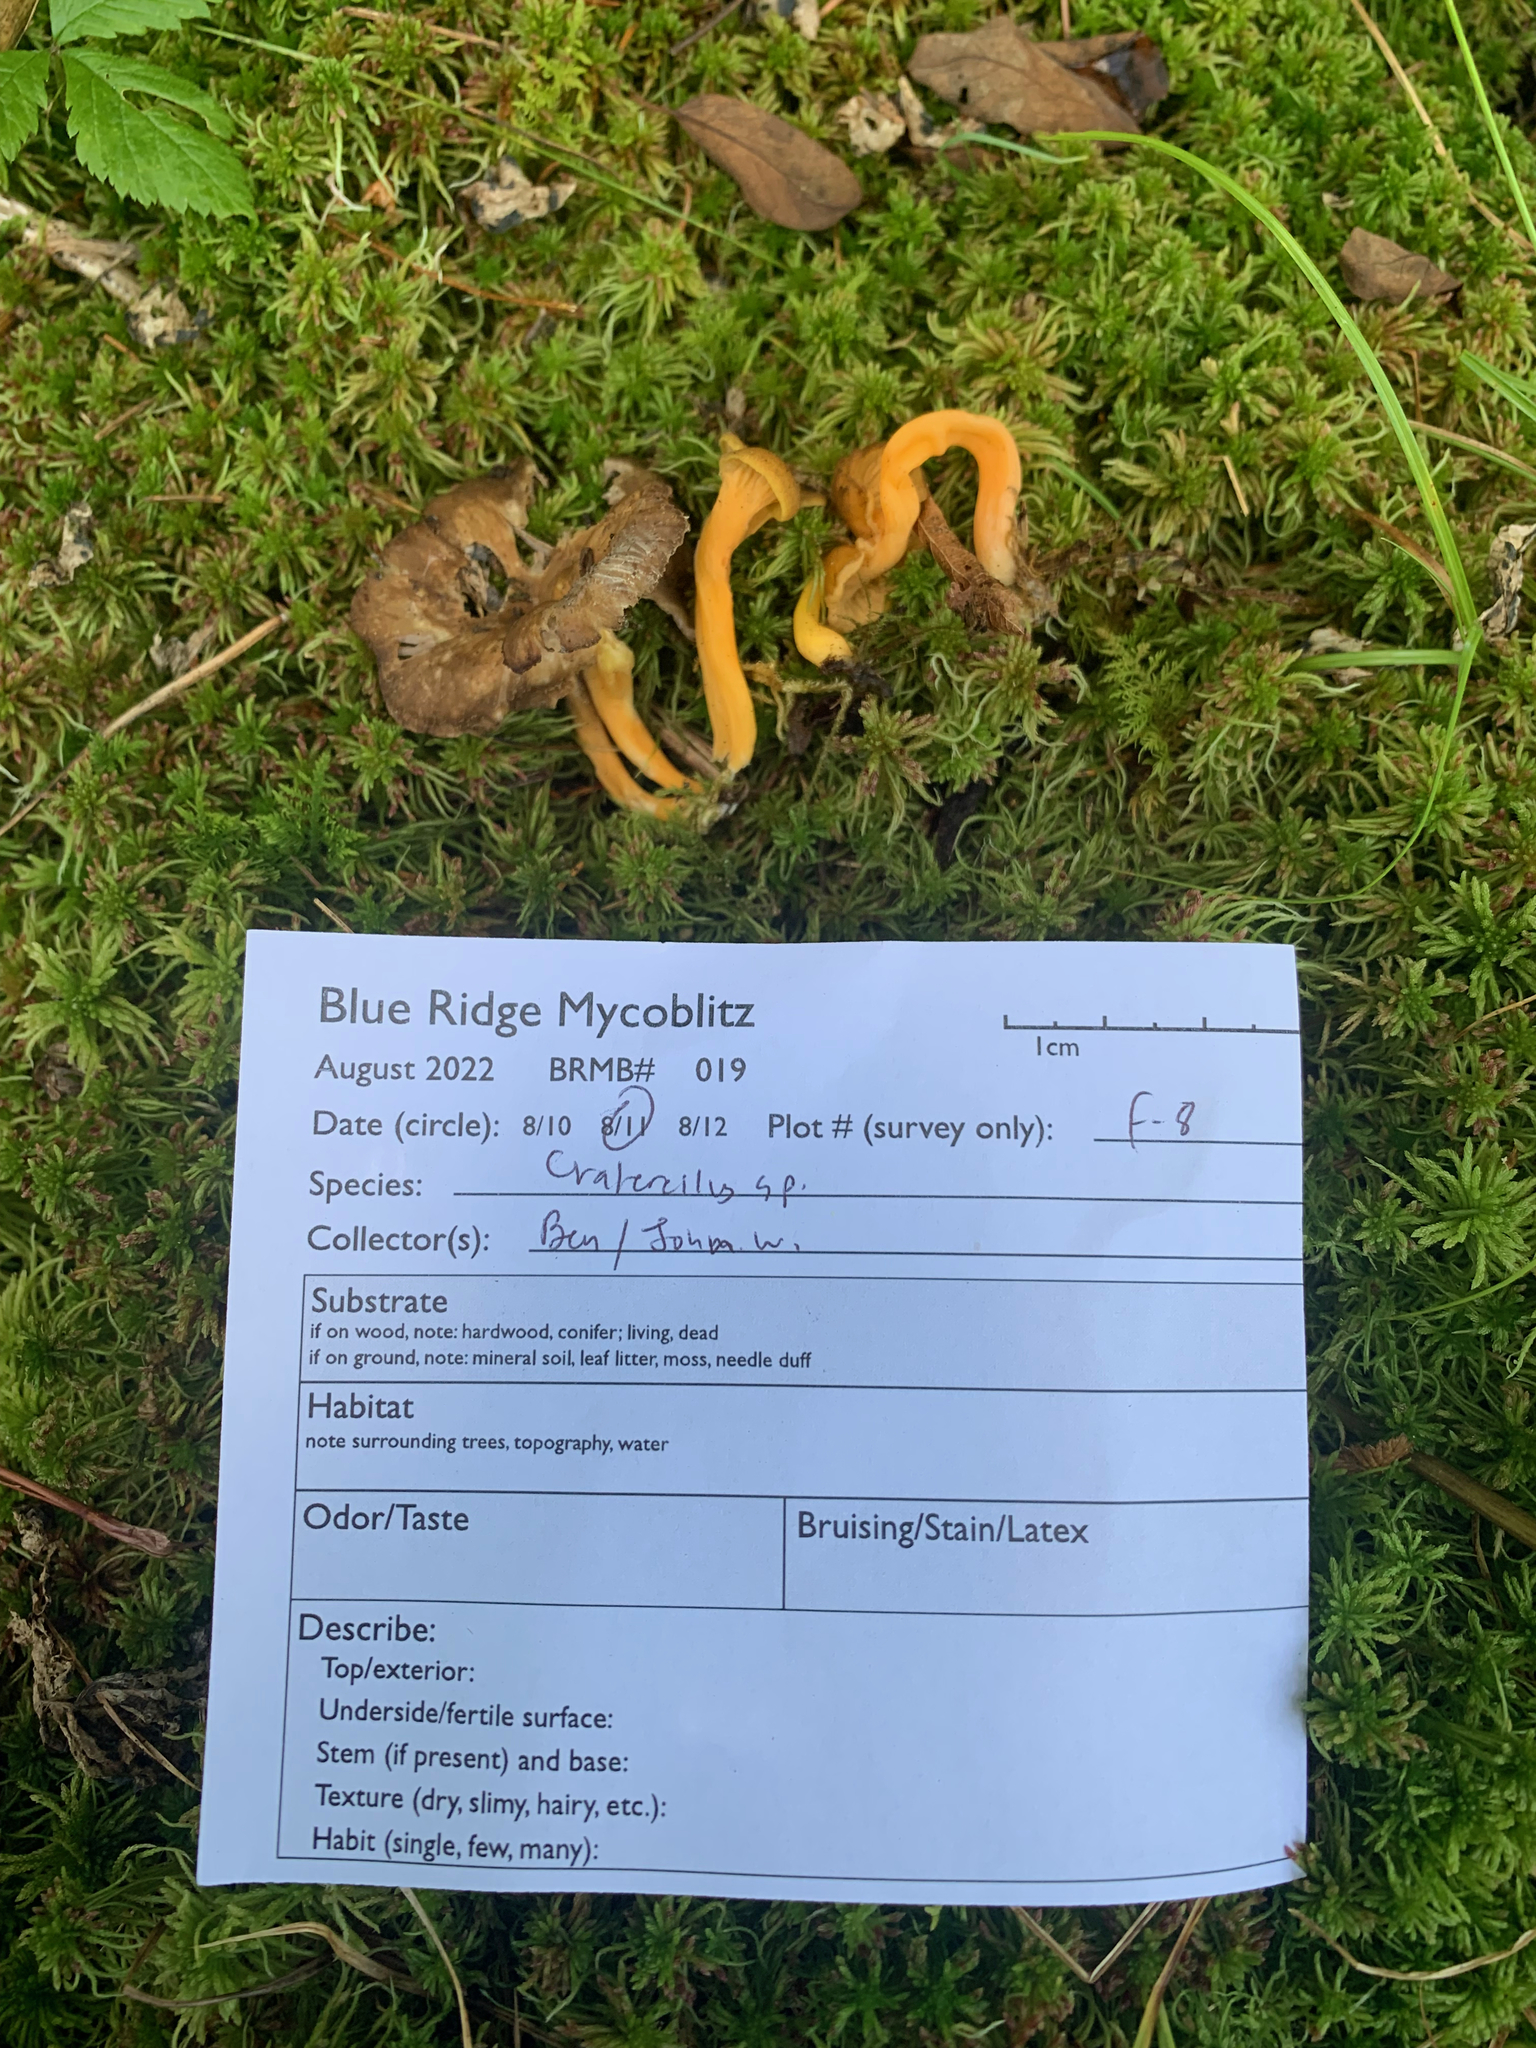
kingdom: Fungi
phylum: Basidiomycota
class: Agaricomycetes
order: Cantharellales
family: Hydnaceae
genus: Craterellus
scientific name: Craterellus tubaeformis
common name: Yellowfoot
